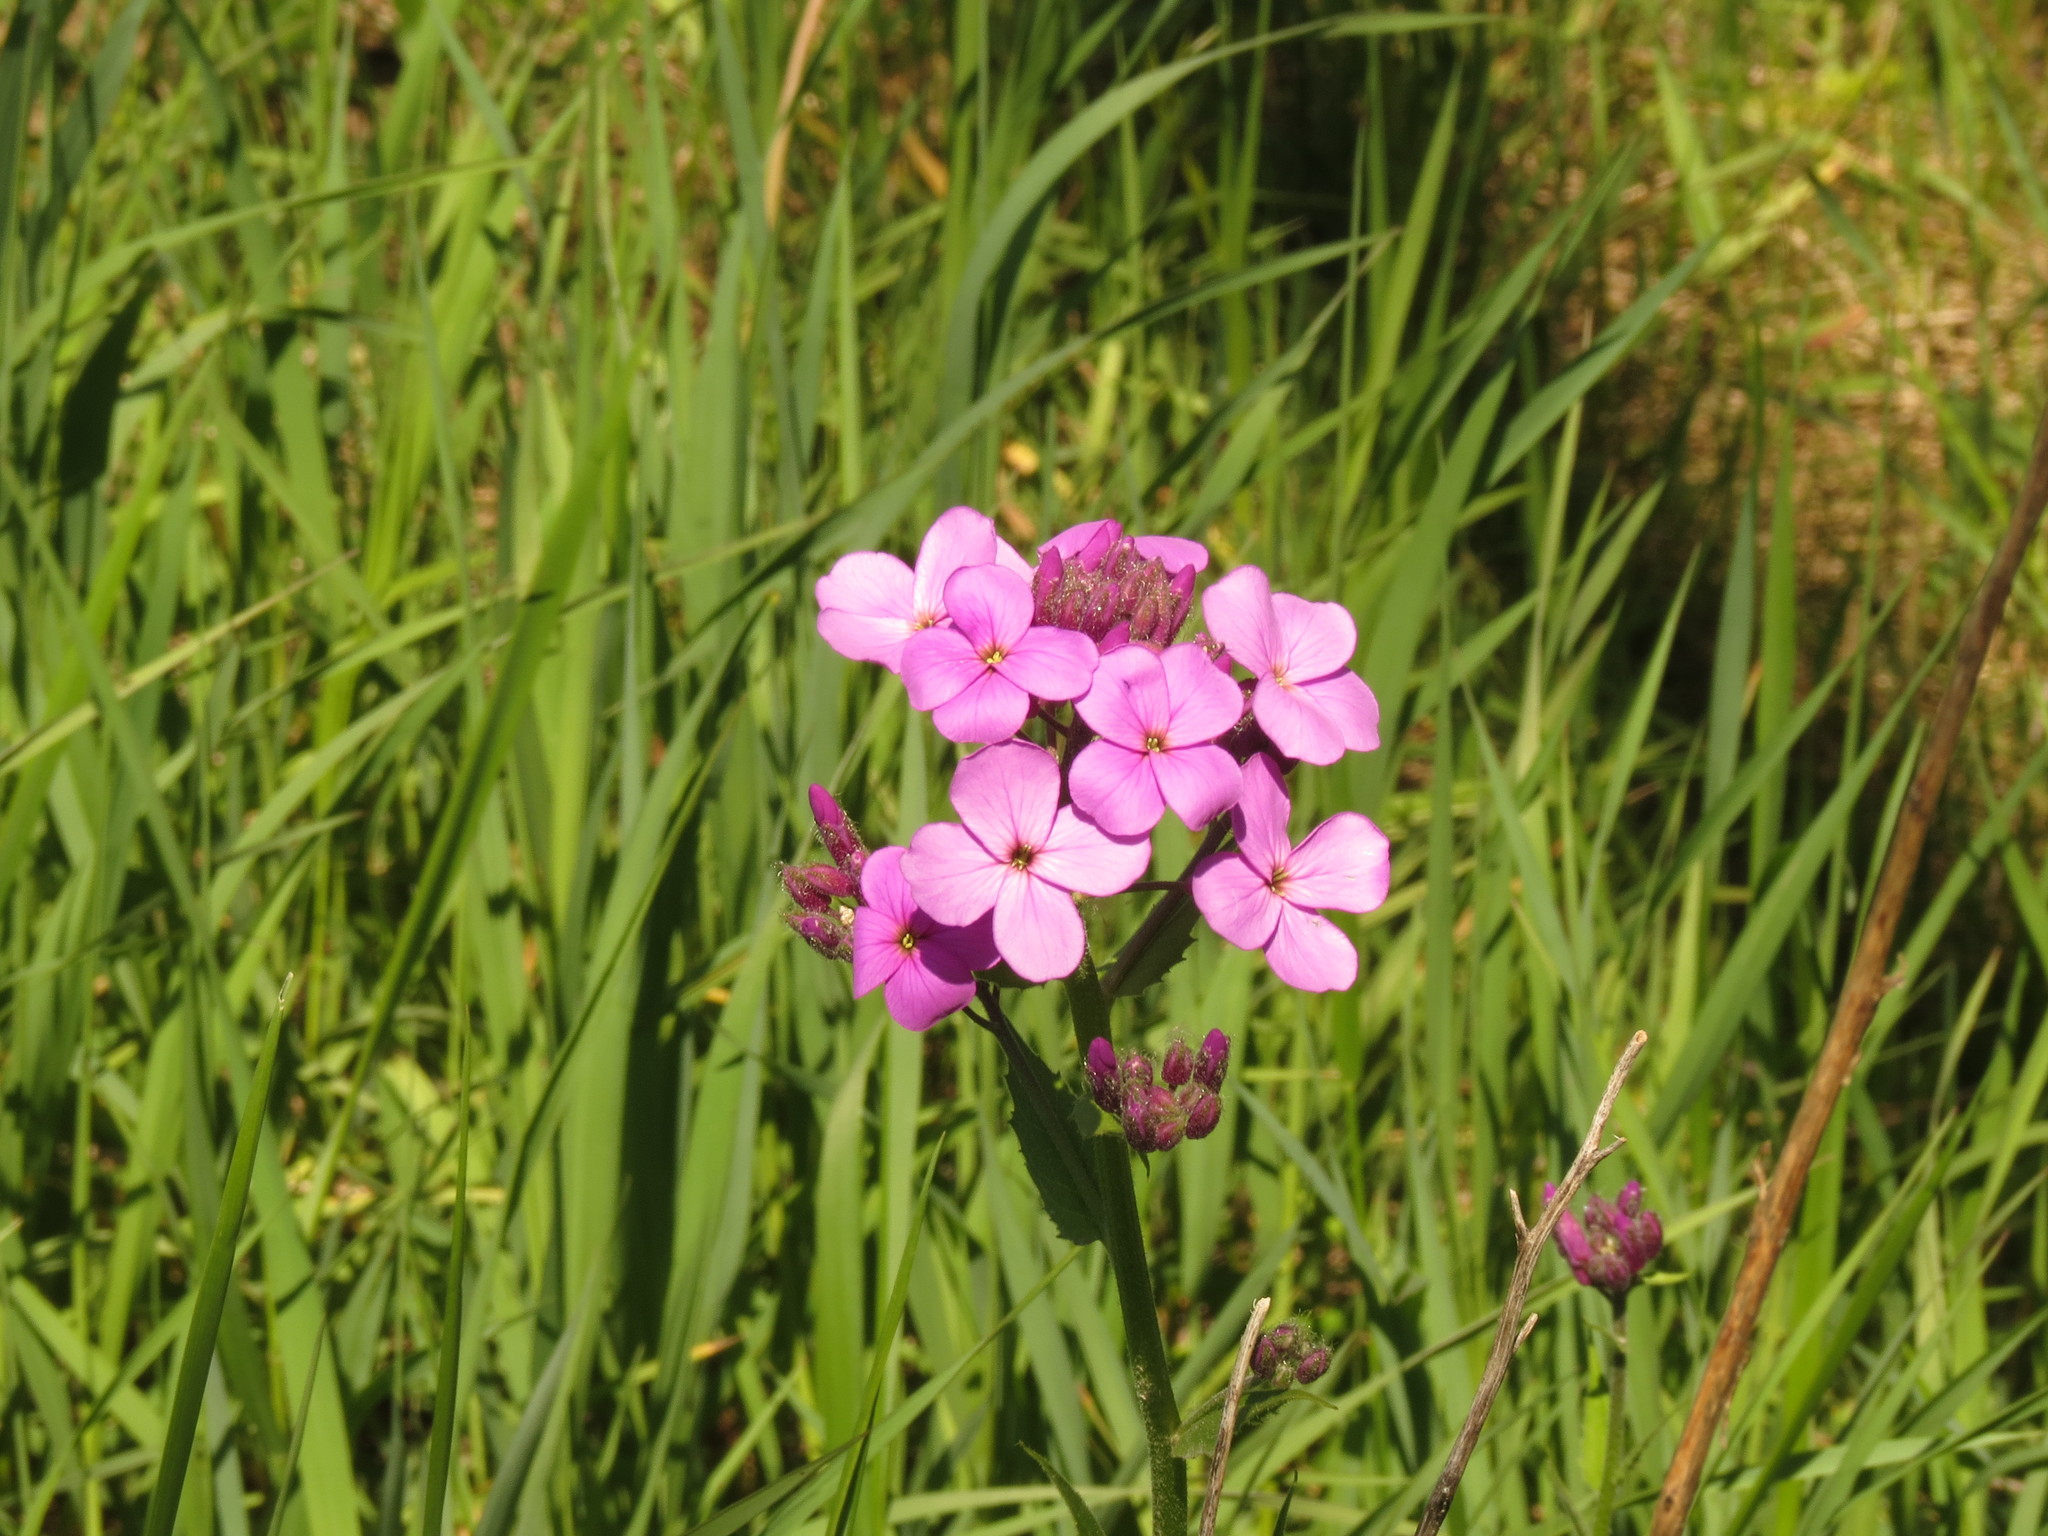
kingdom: Plantae
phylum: Tracheophyta
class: Magnoliopsida
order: Brassicales
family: Brassicaceae
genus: Hesperis
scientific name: Hesperis matronalis
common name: Dame's-violet
